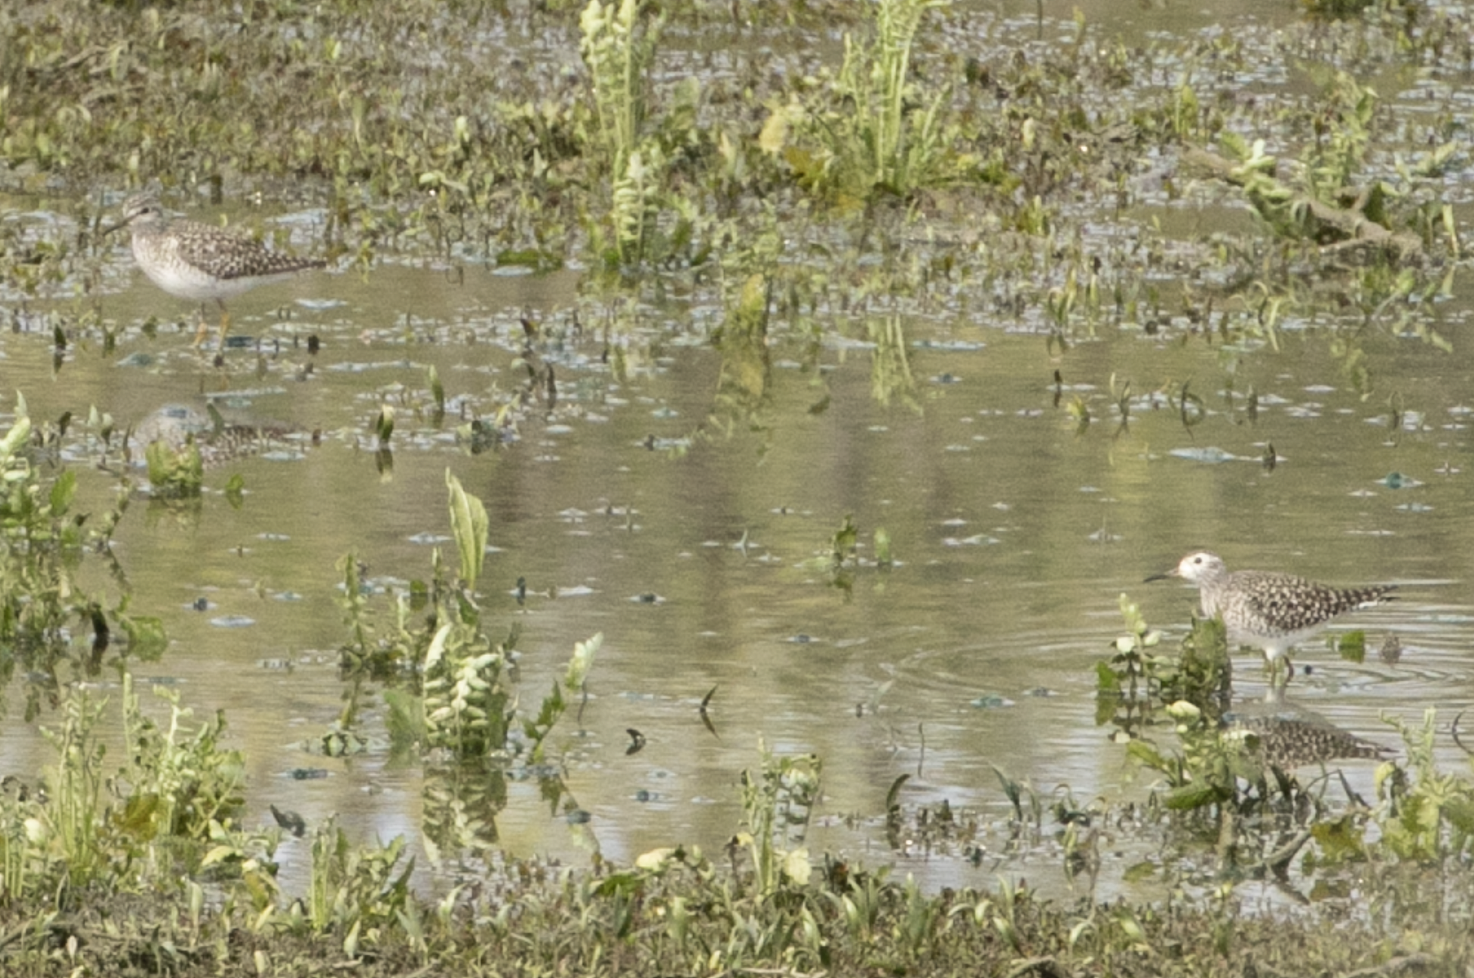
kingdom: Animalia
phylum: Chordata
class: Aves
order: Charadriiformes
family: Scolopacidae
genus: Tringa
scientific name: Tringa glareola
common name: Wood sandpiper
